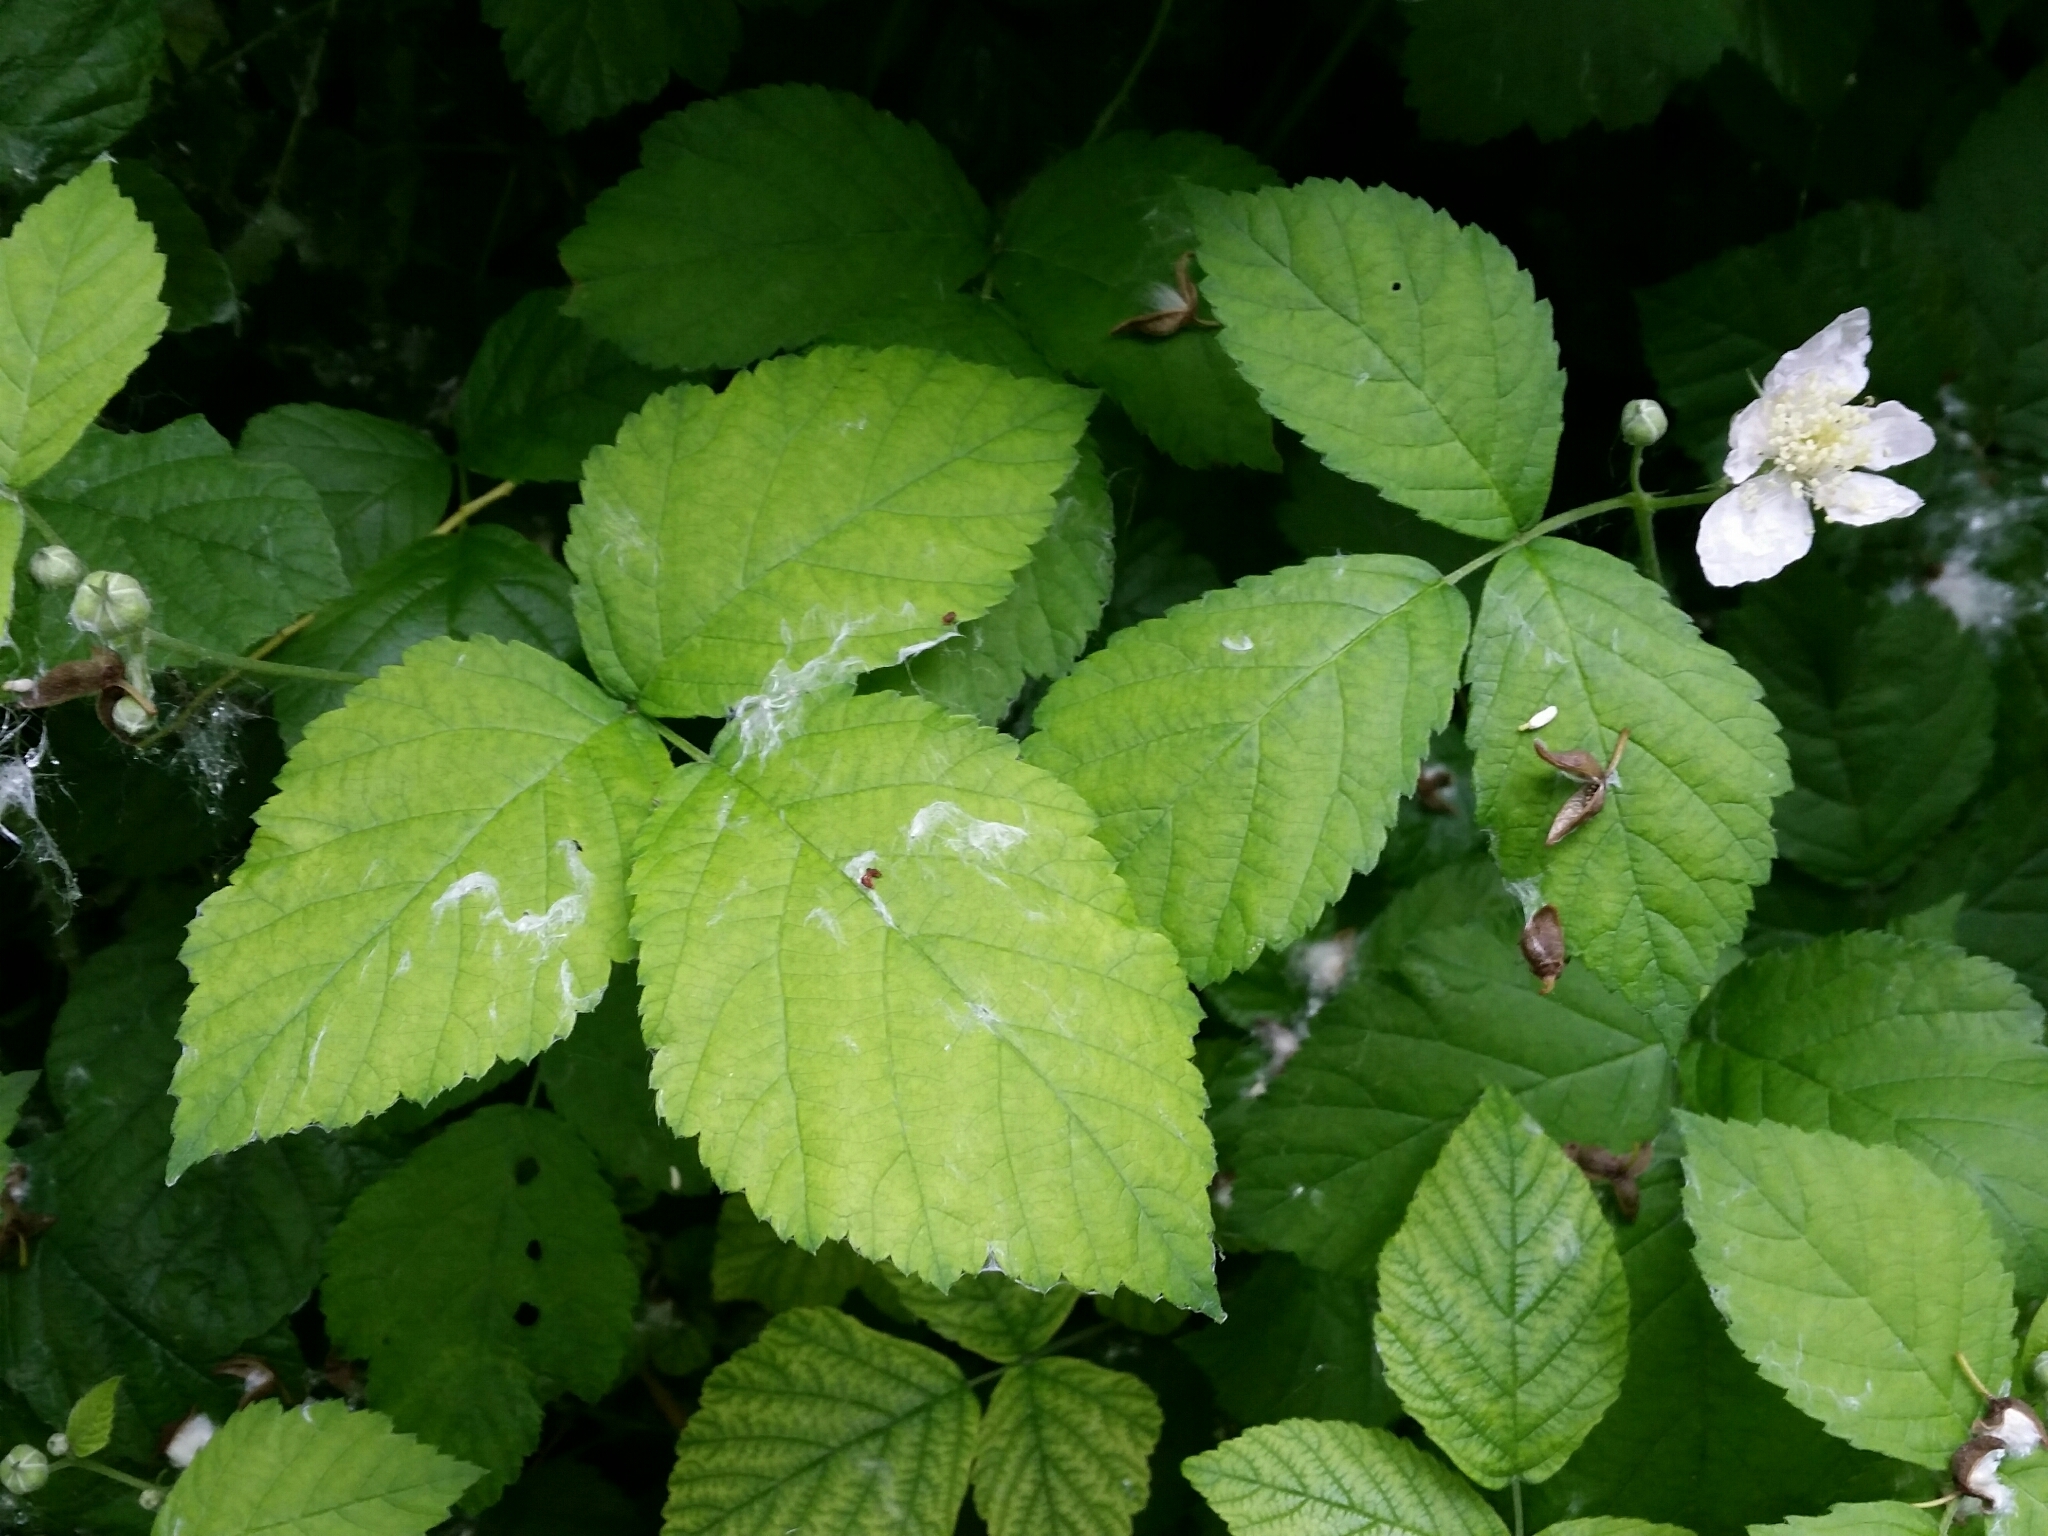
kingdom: Plantae
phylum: Tracheophyta
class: Magnoliopsida
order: Rosales
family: Rosaceae
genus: Rubus
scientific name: Rubus caesius
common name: Dewberry
